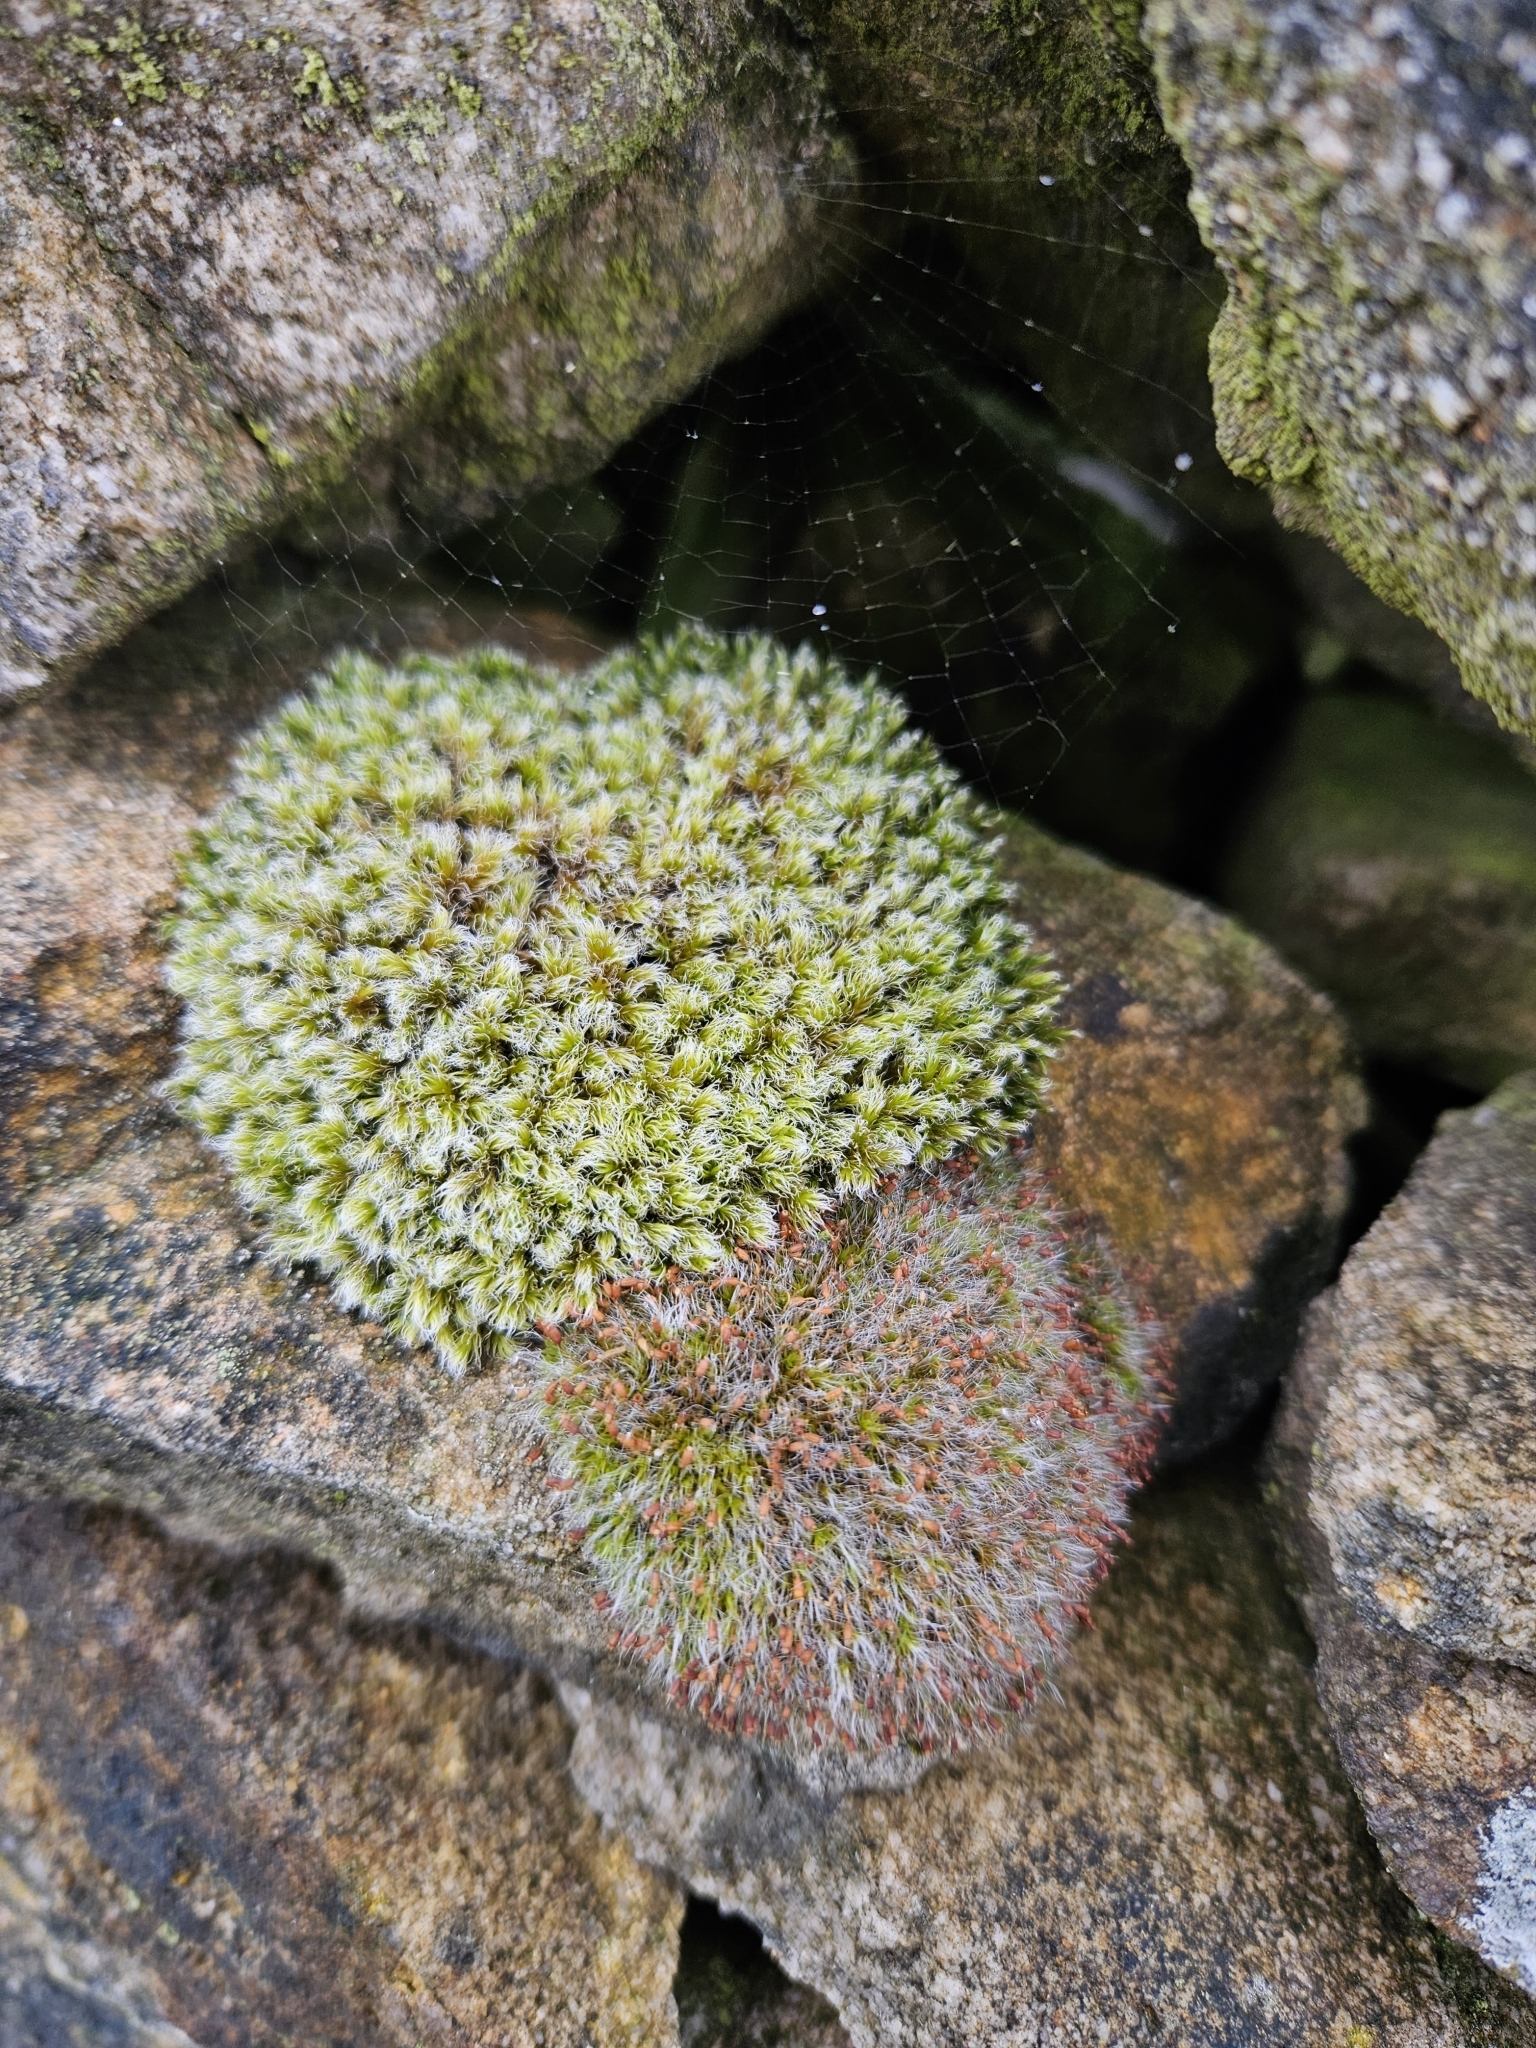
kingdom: Plantae
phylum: Bryophyta
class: Bryopsida
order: Grimmiales
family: Grimmiaceae
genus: Racomitrium
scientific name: Racomitrium lanuginosum
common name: Hoary rock moss
